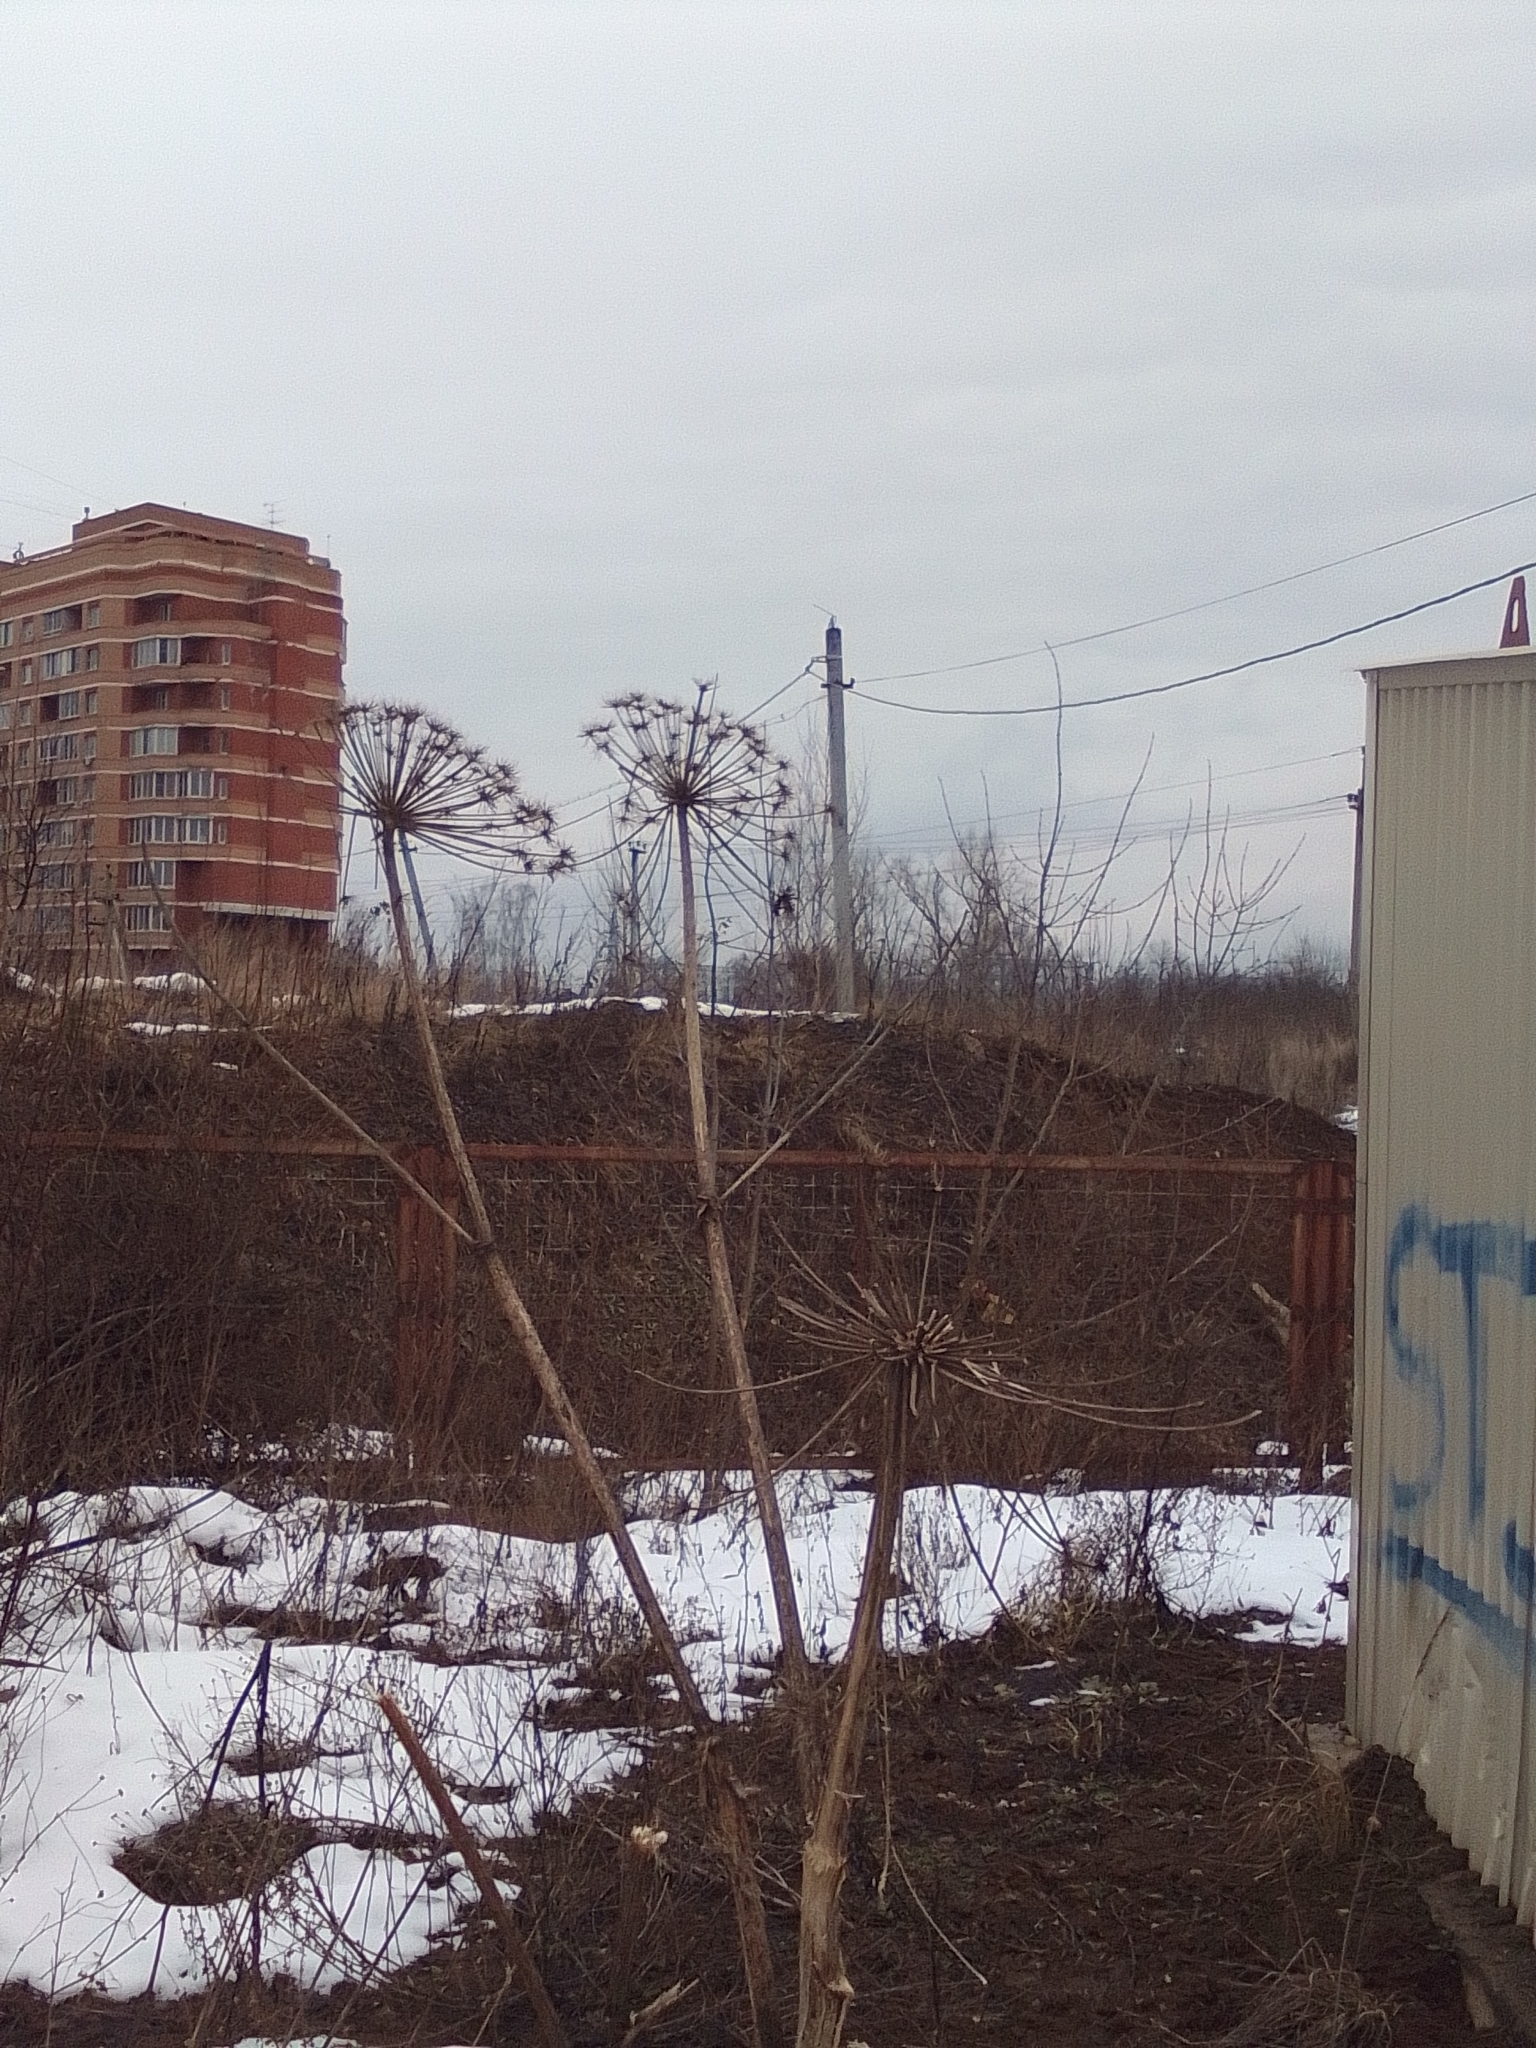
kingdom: Plantae
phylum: Tracheophyta
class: Magnoliopsida
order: Apiales
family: Apiaceae
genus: Heracleum
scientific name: Heracleum sosnowskyi
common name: Sosnowsky's hogweed
